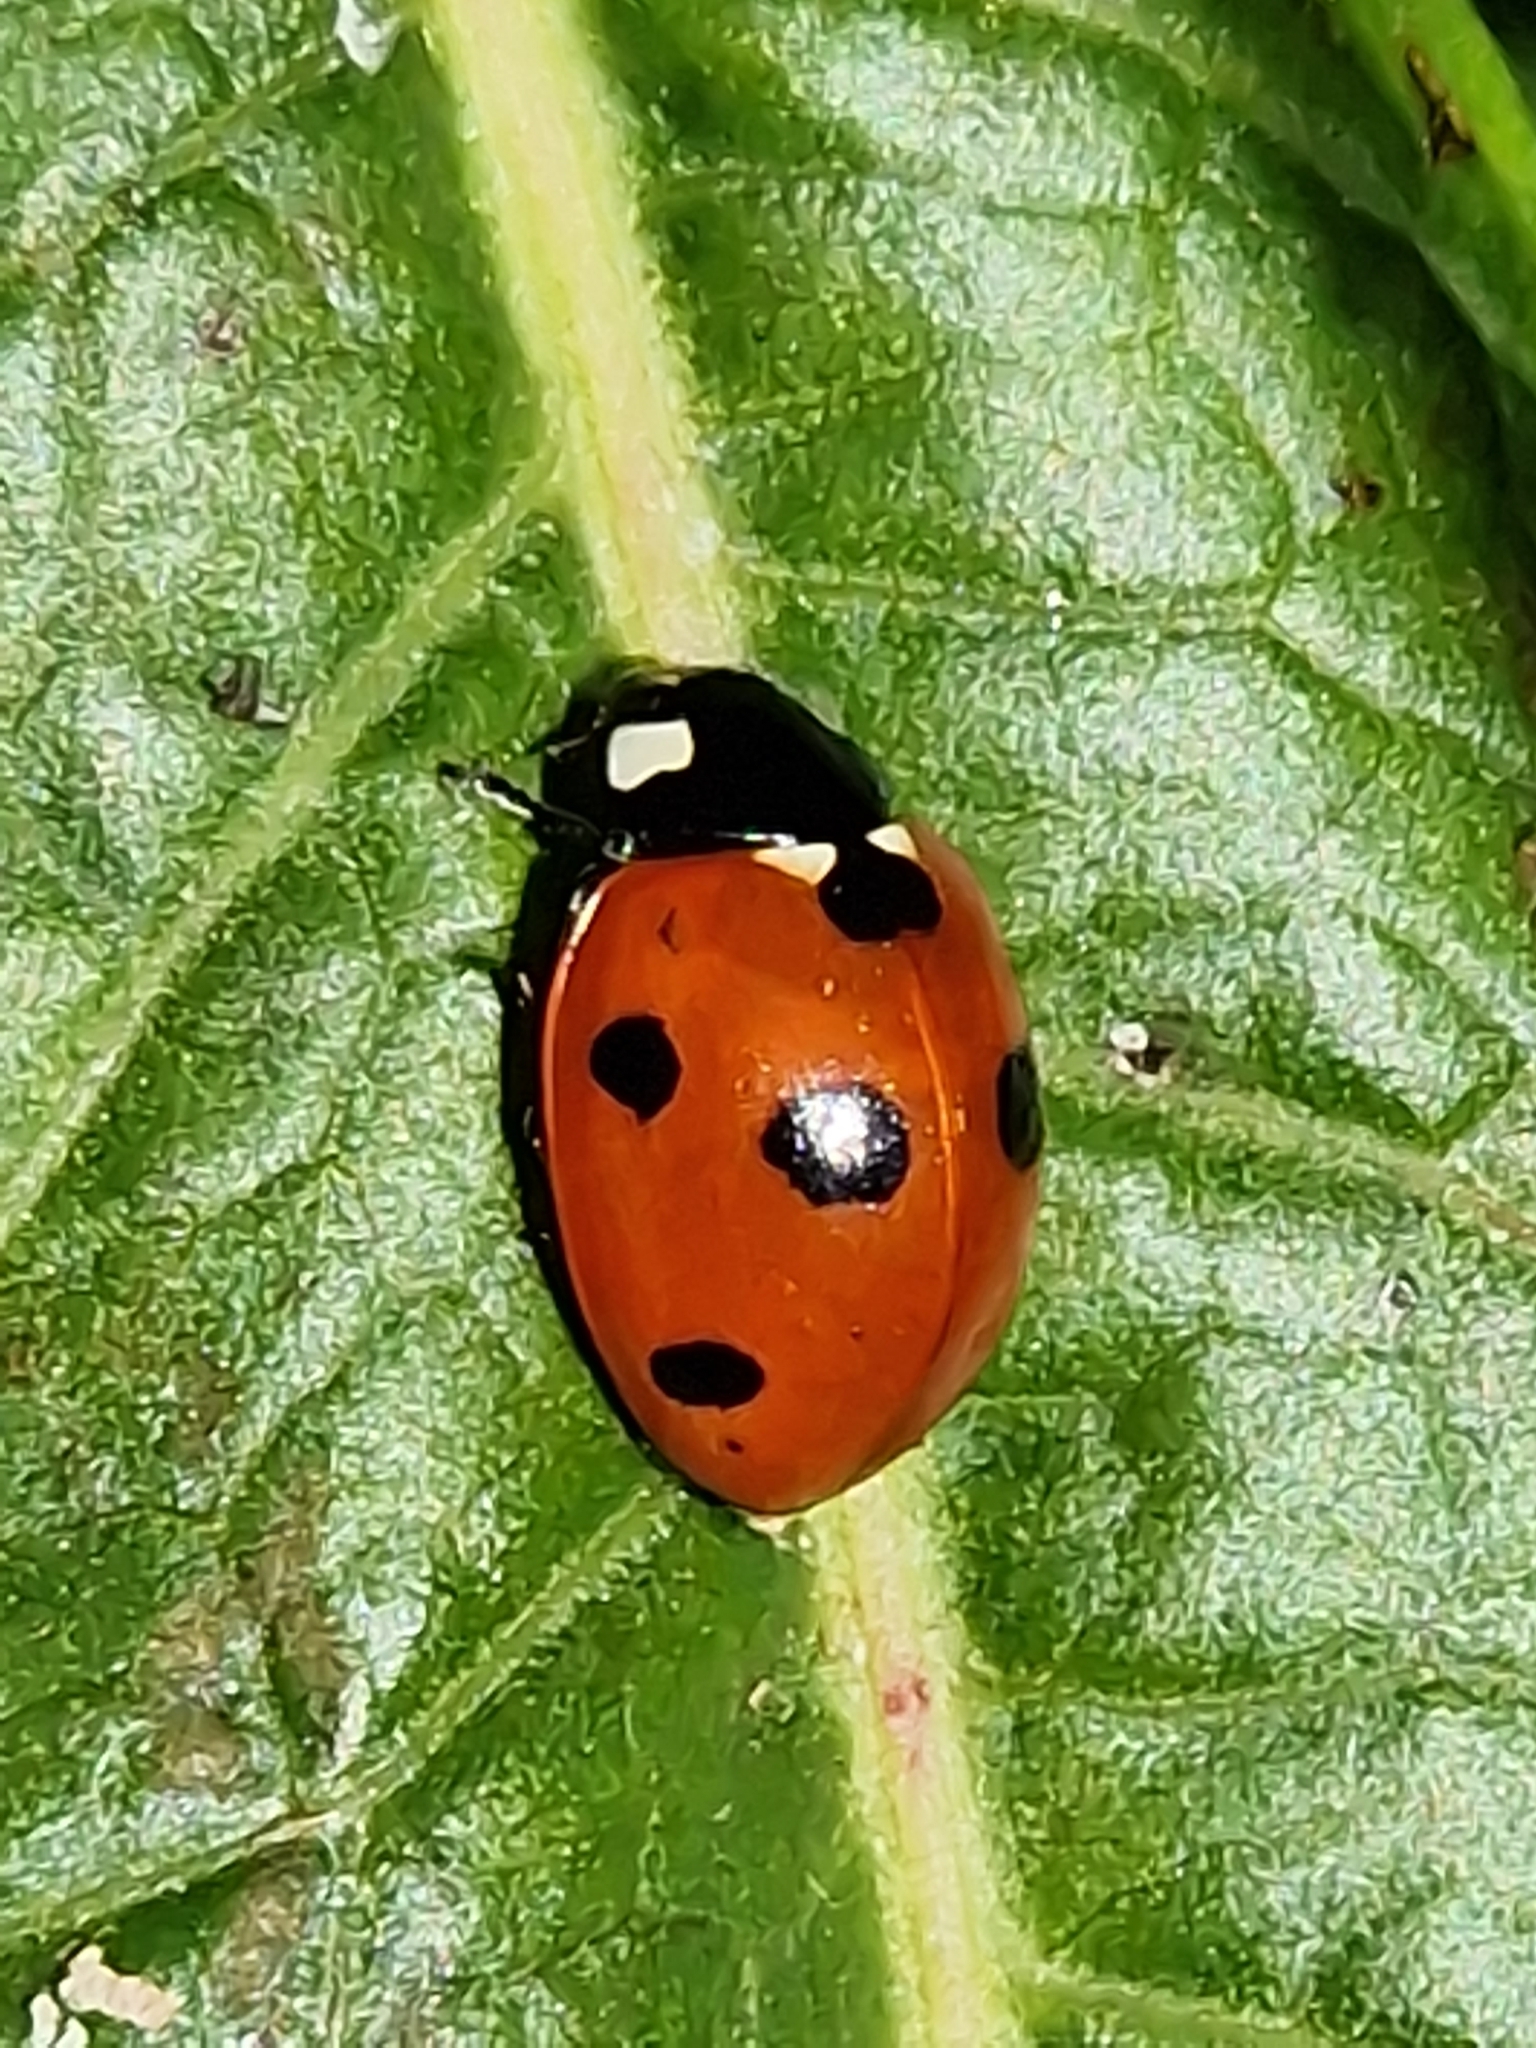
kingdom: Animalia
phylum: Arthropoda
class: Insecta
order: Coleoptera
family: Coccinellidae
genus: Coccinella
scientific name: Coccinella septempunctata
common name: Sevenspotted lady beetle
